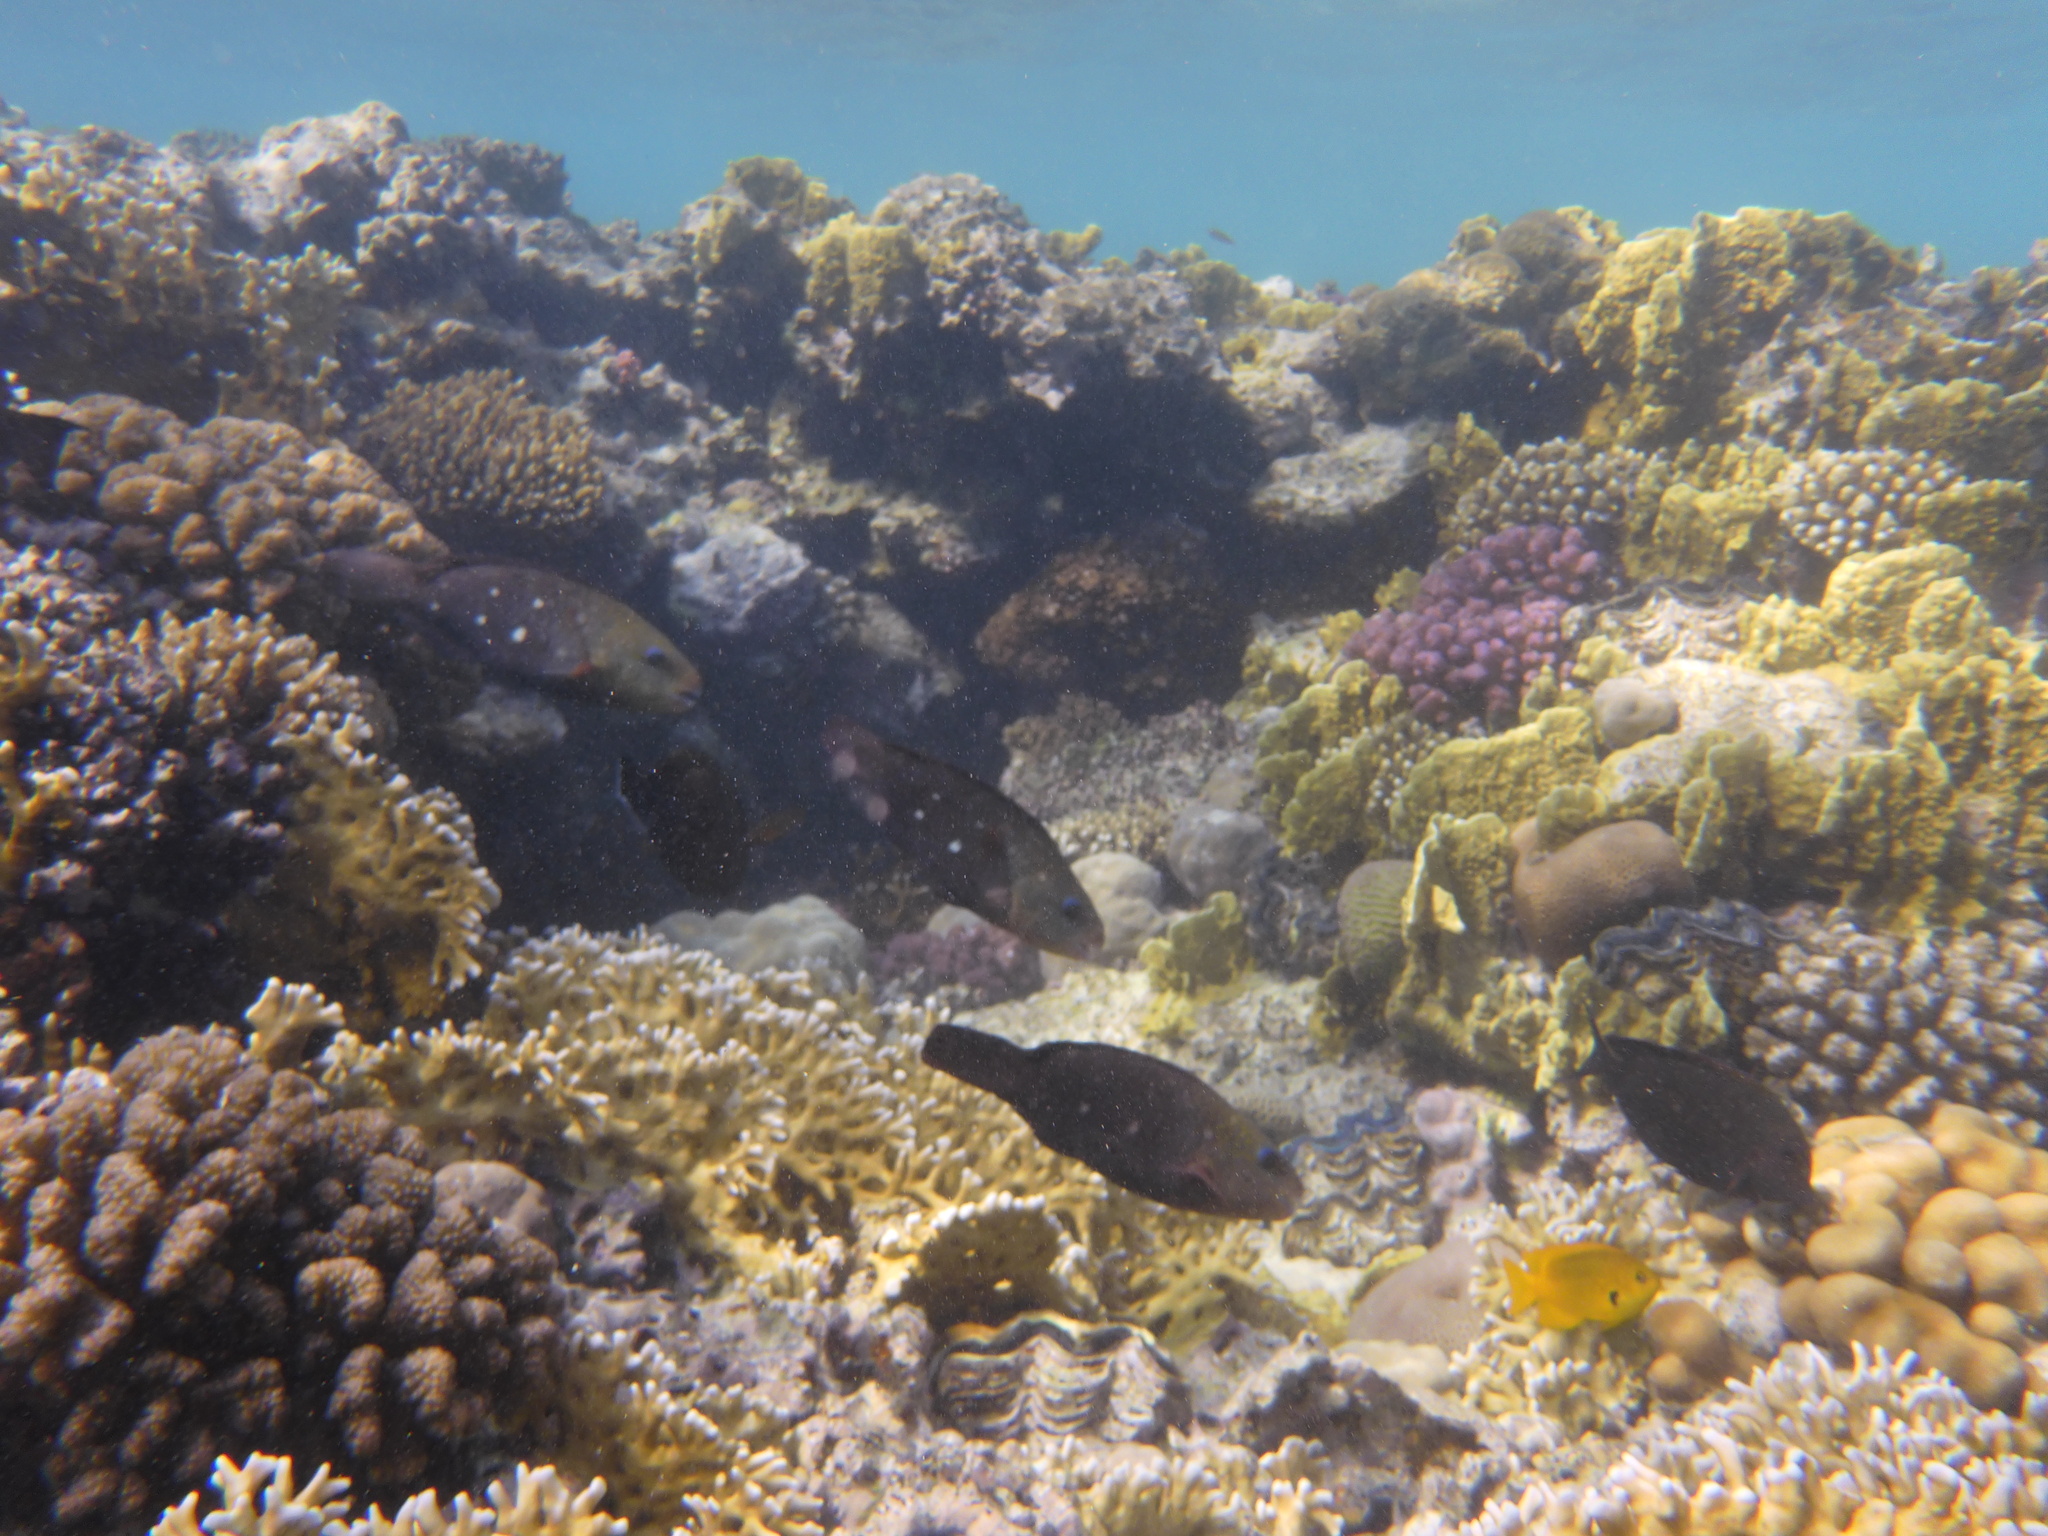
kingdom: Animalia
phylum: Chordata
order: Perciformes
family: Scaridae
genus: Chlorurus
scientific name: Chlorurus sordidus
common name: Bullethead parrotfish
